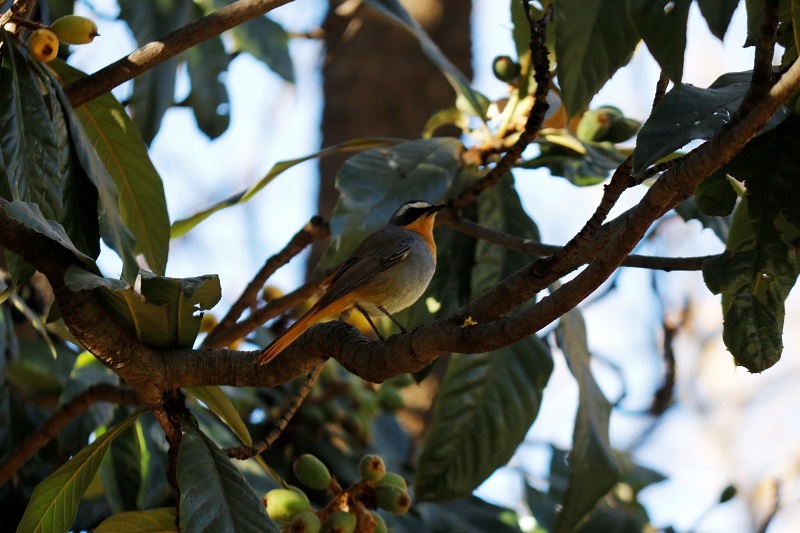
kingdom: Animalia
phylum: Chordata
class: Aves
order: Passeriformes
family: Muscicapidae
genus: Cossypha
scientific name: Cossypha caffra
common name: Cape robin-chat
